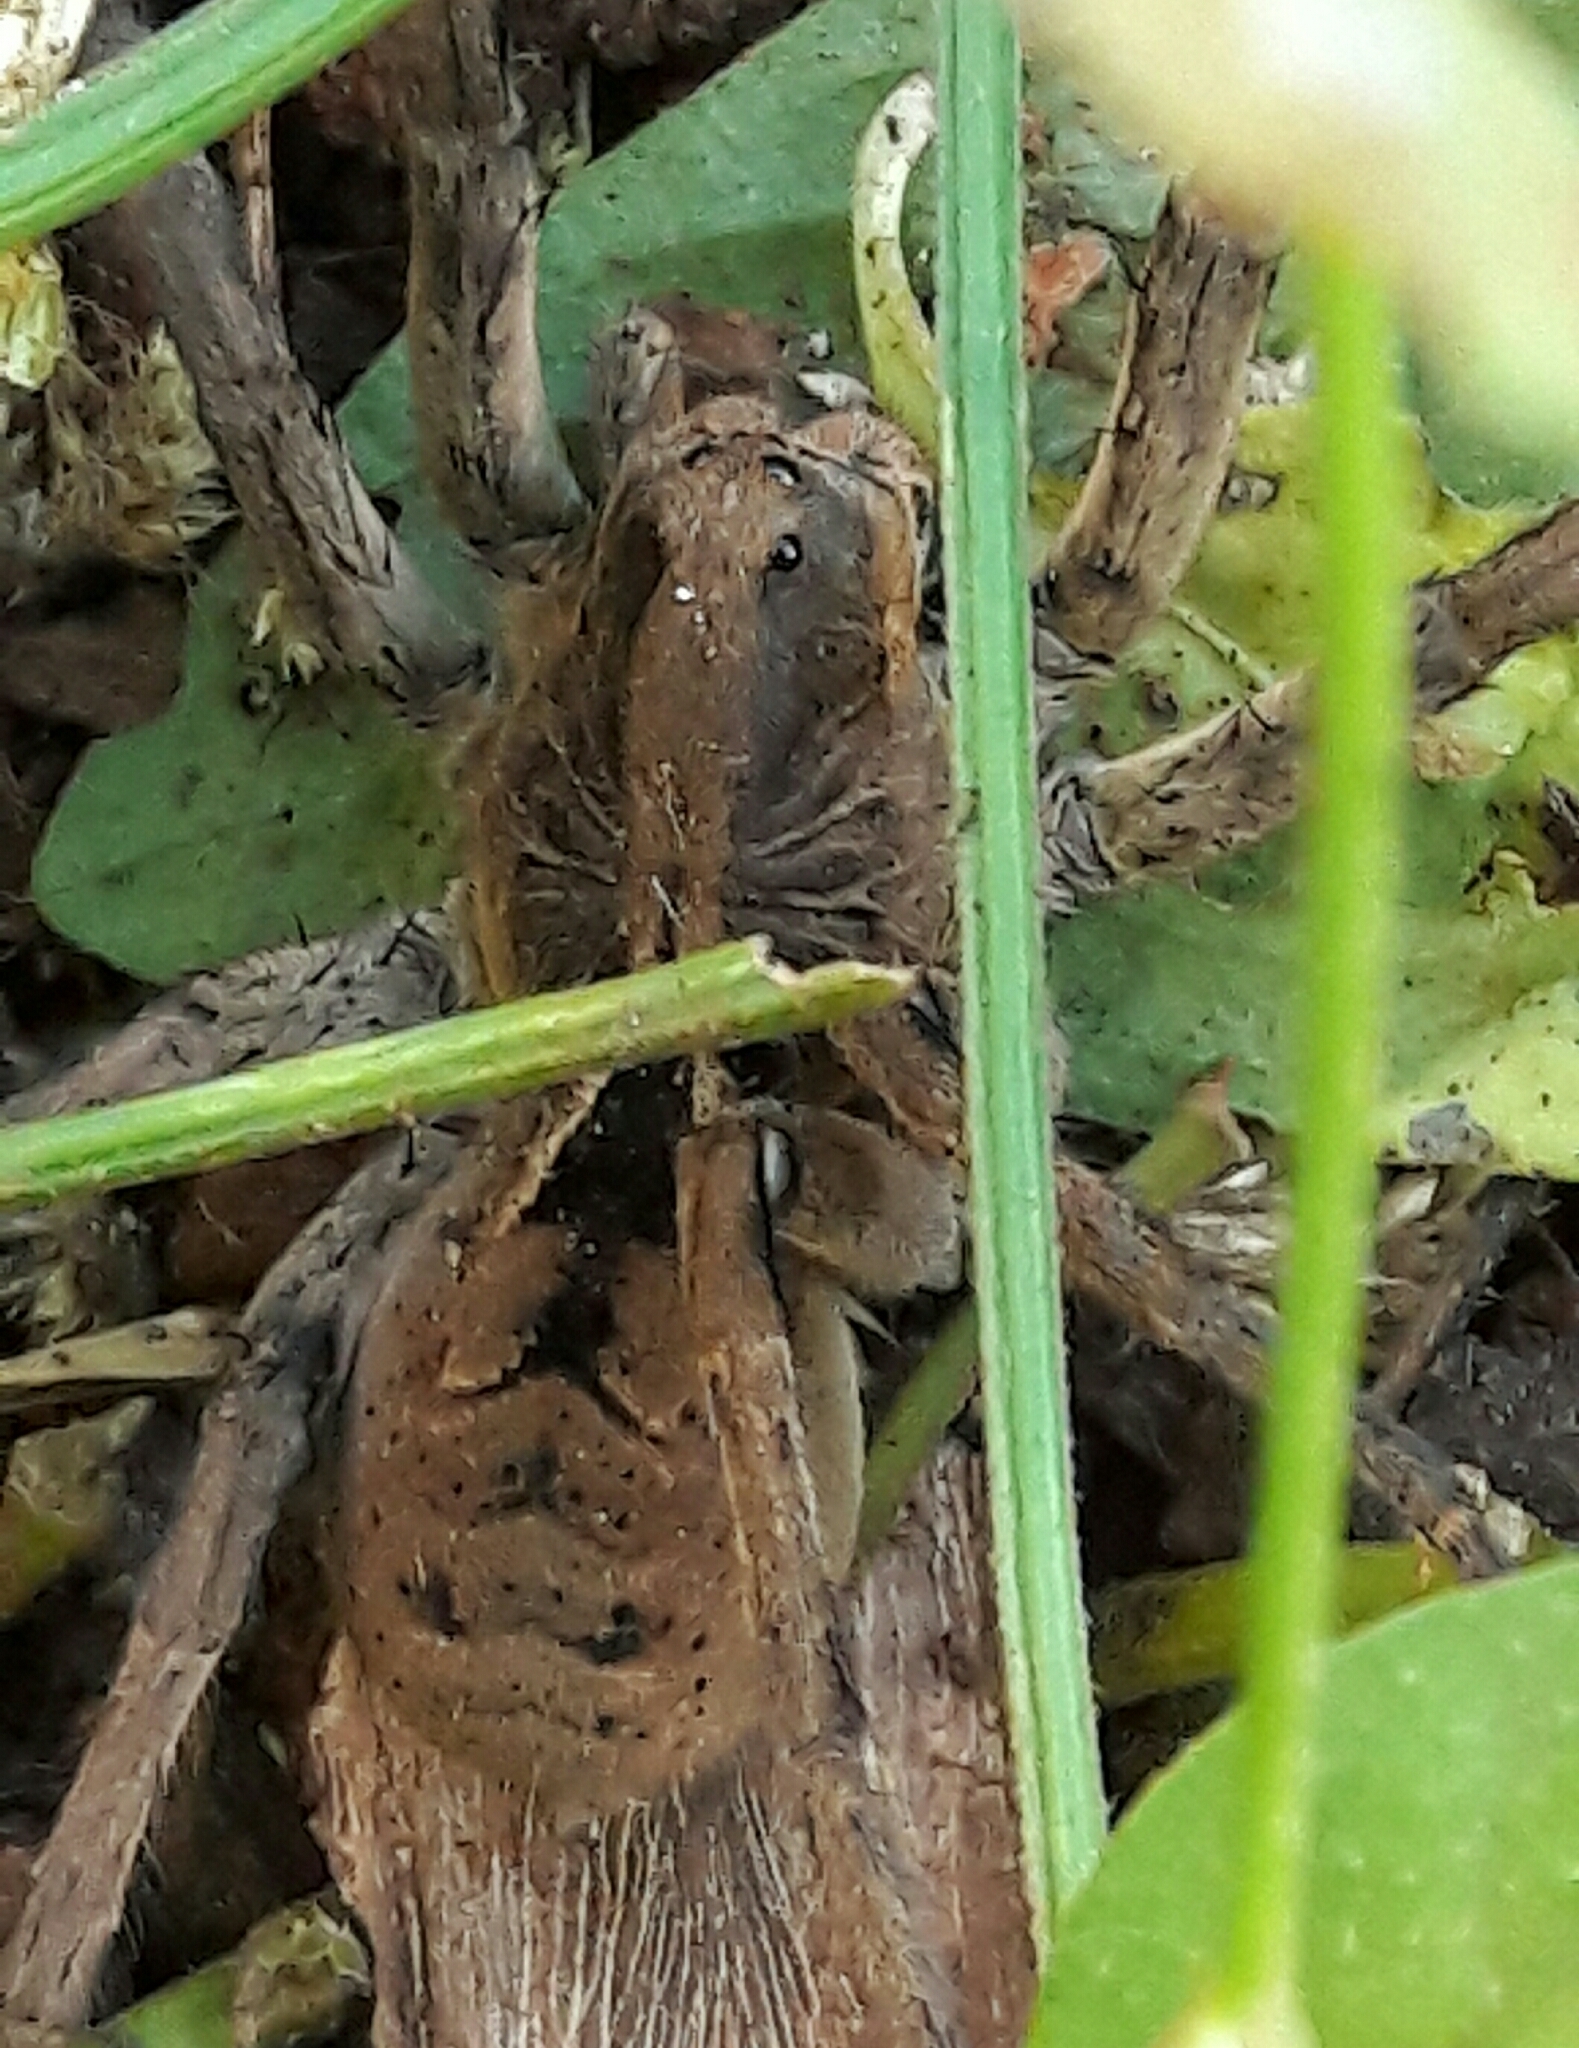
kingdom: Animalia
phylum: Arthropoda
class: Arachnida
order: Araneae
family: Lycosidae
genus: Lycosa
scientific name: Lycosa erythrognatha
